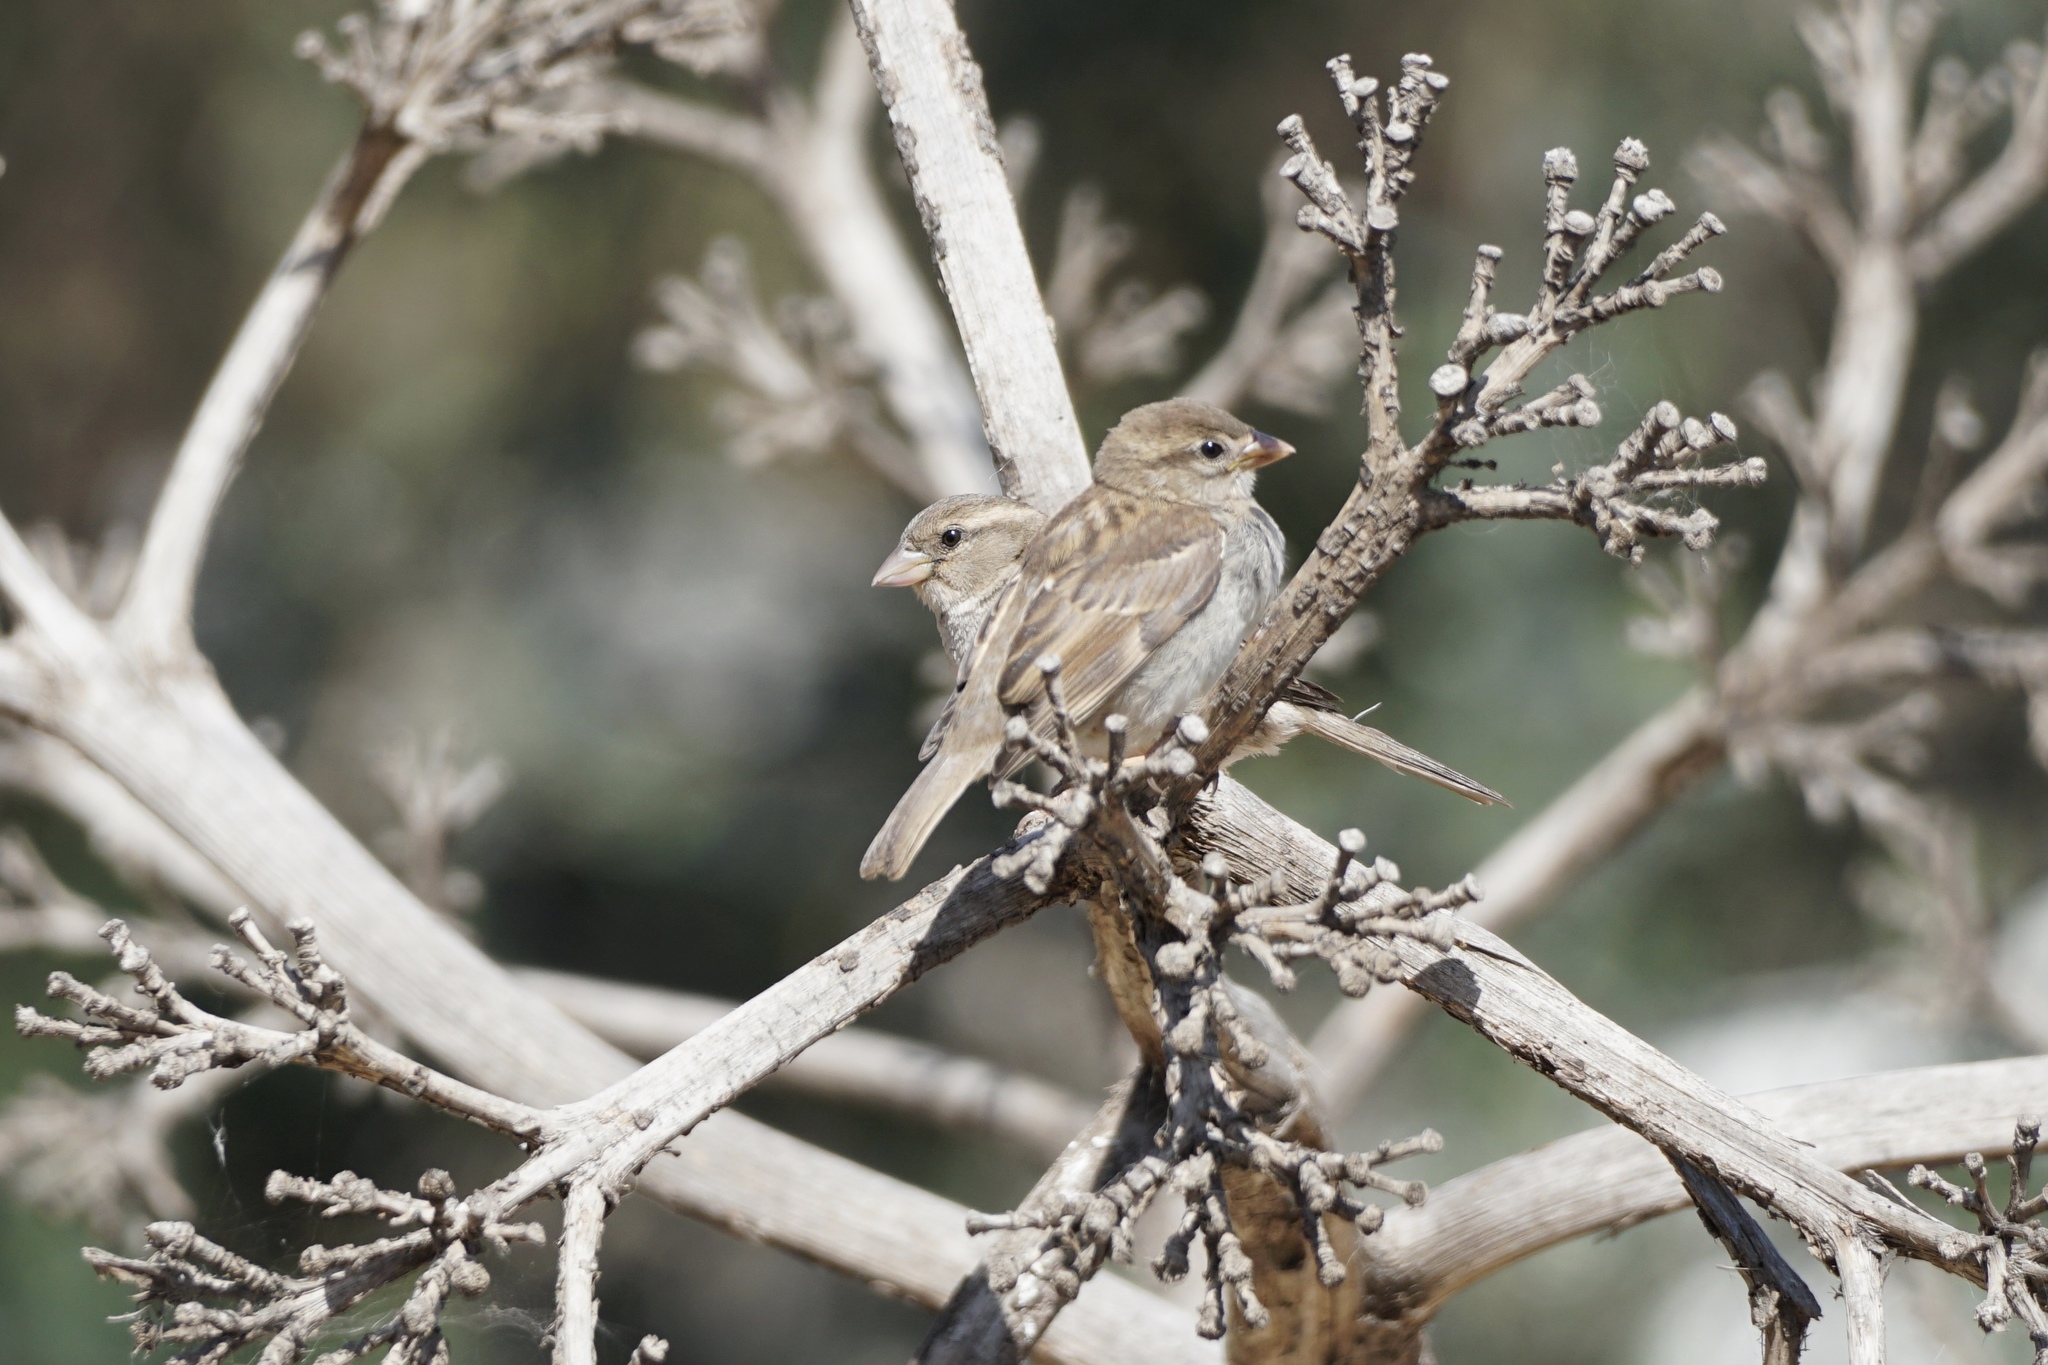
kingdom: Animalia
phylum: Chordata
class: Aves
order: Passeriformes
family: Passeridae
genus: Passer
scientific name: Passer domesticus
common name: House sparrow
